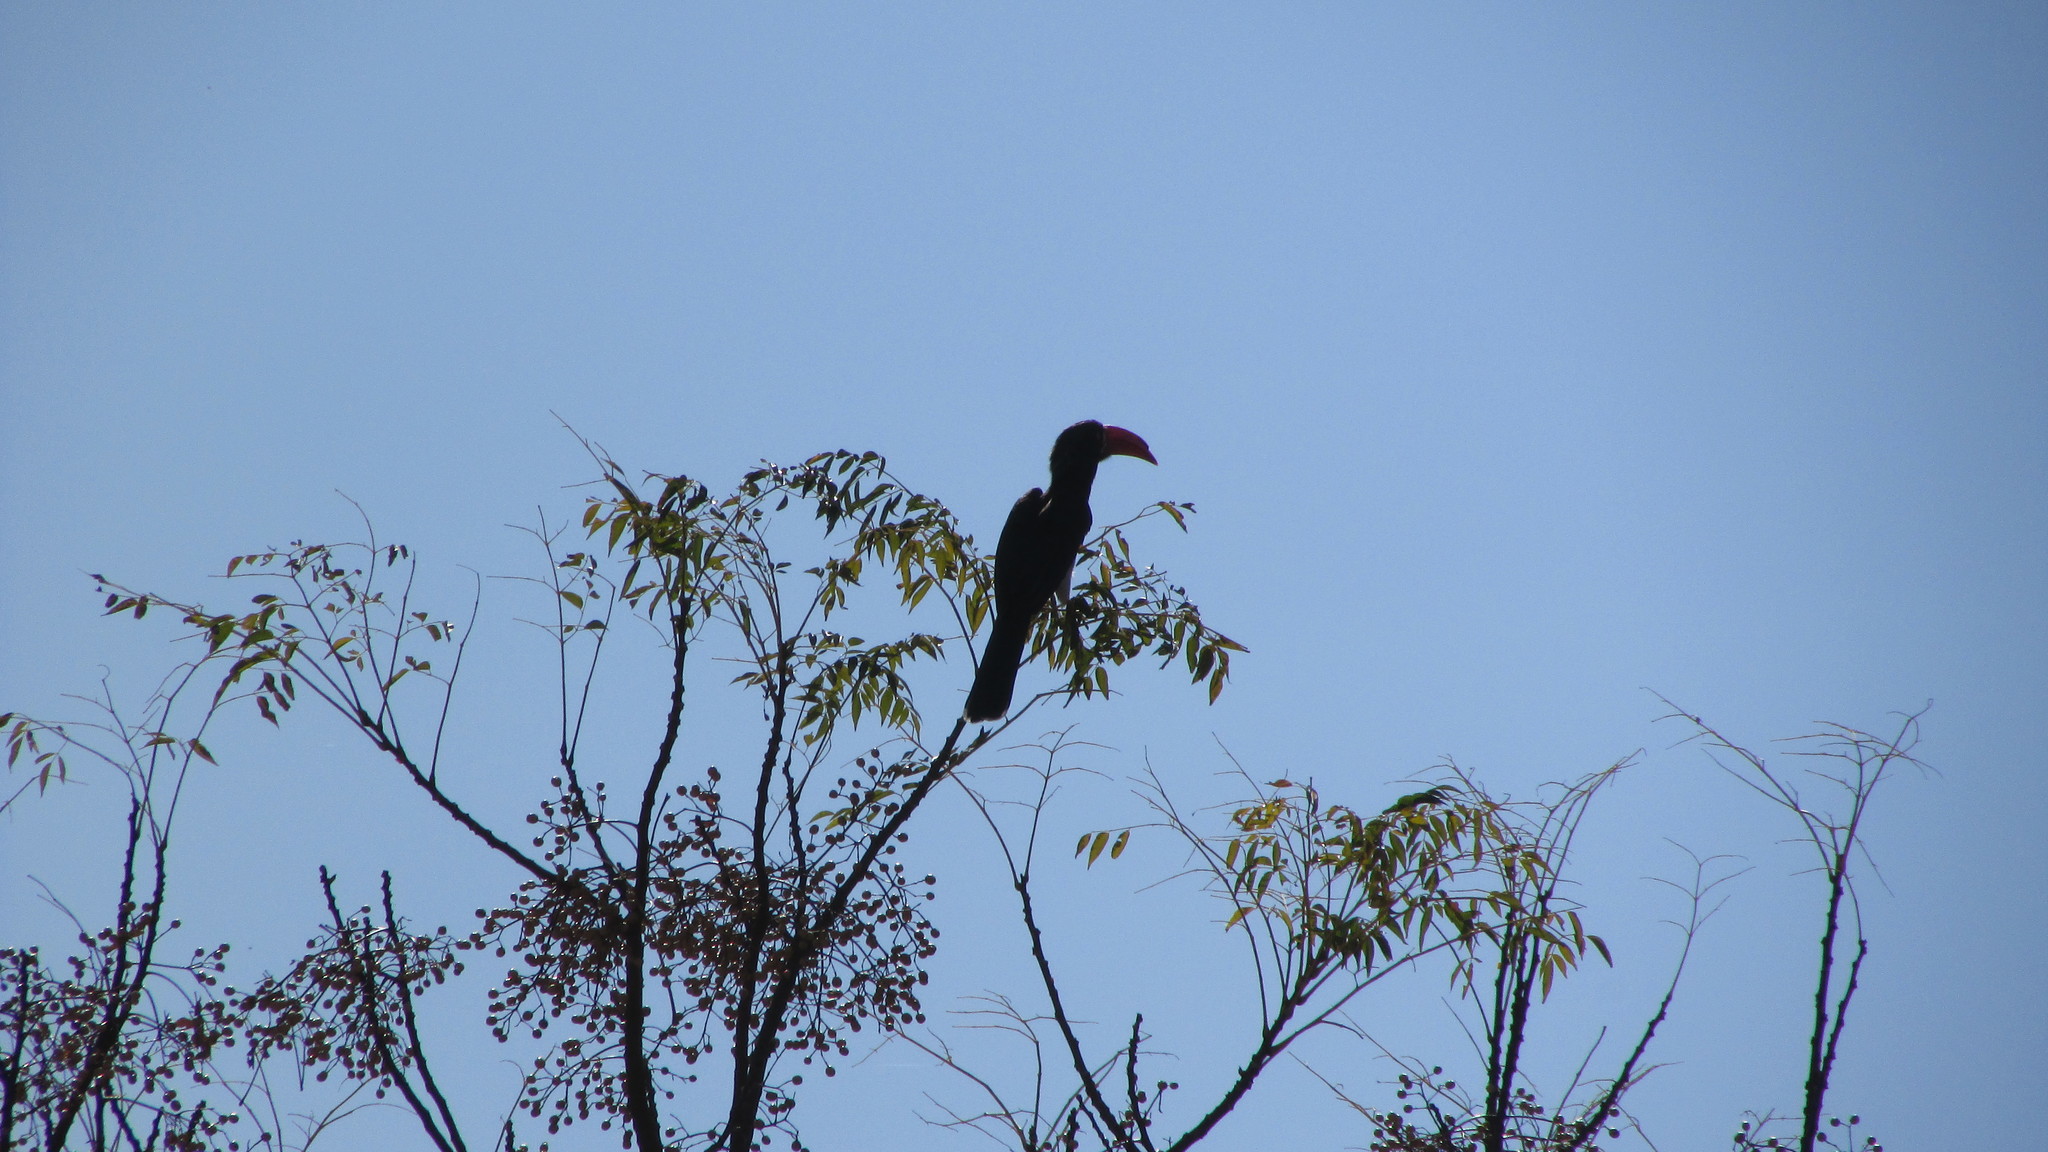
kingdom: Animalia
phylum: Chordata
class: Aves
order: Bucerotiformes
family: Bucerotidae
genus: Lophoceros
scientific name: Lophoceros alboterminatus
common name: Crowned hornbill
